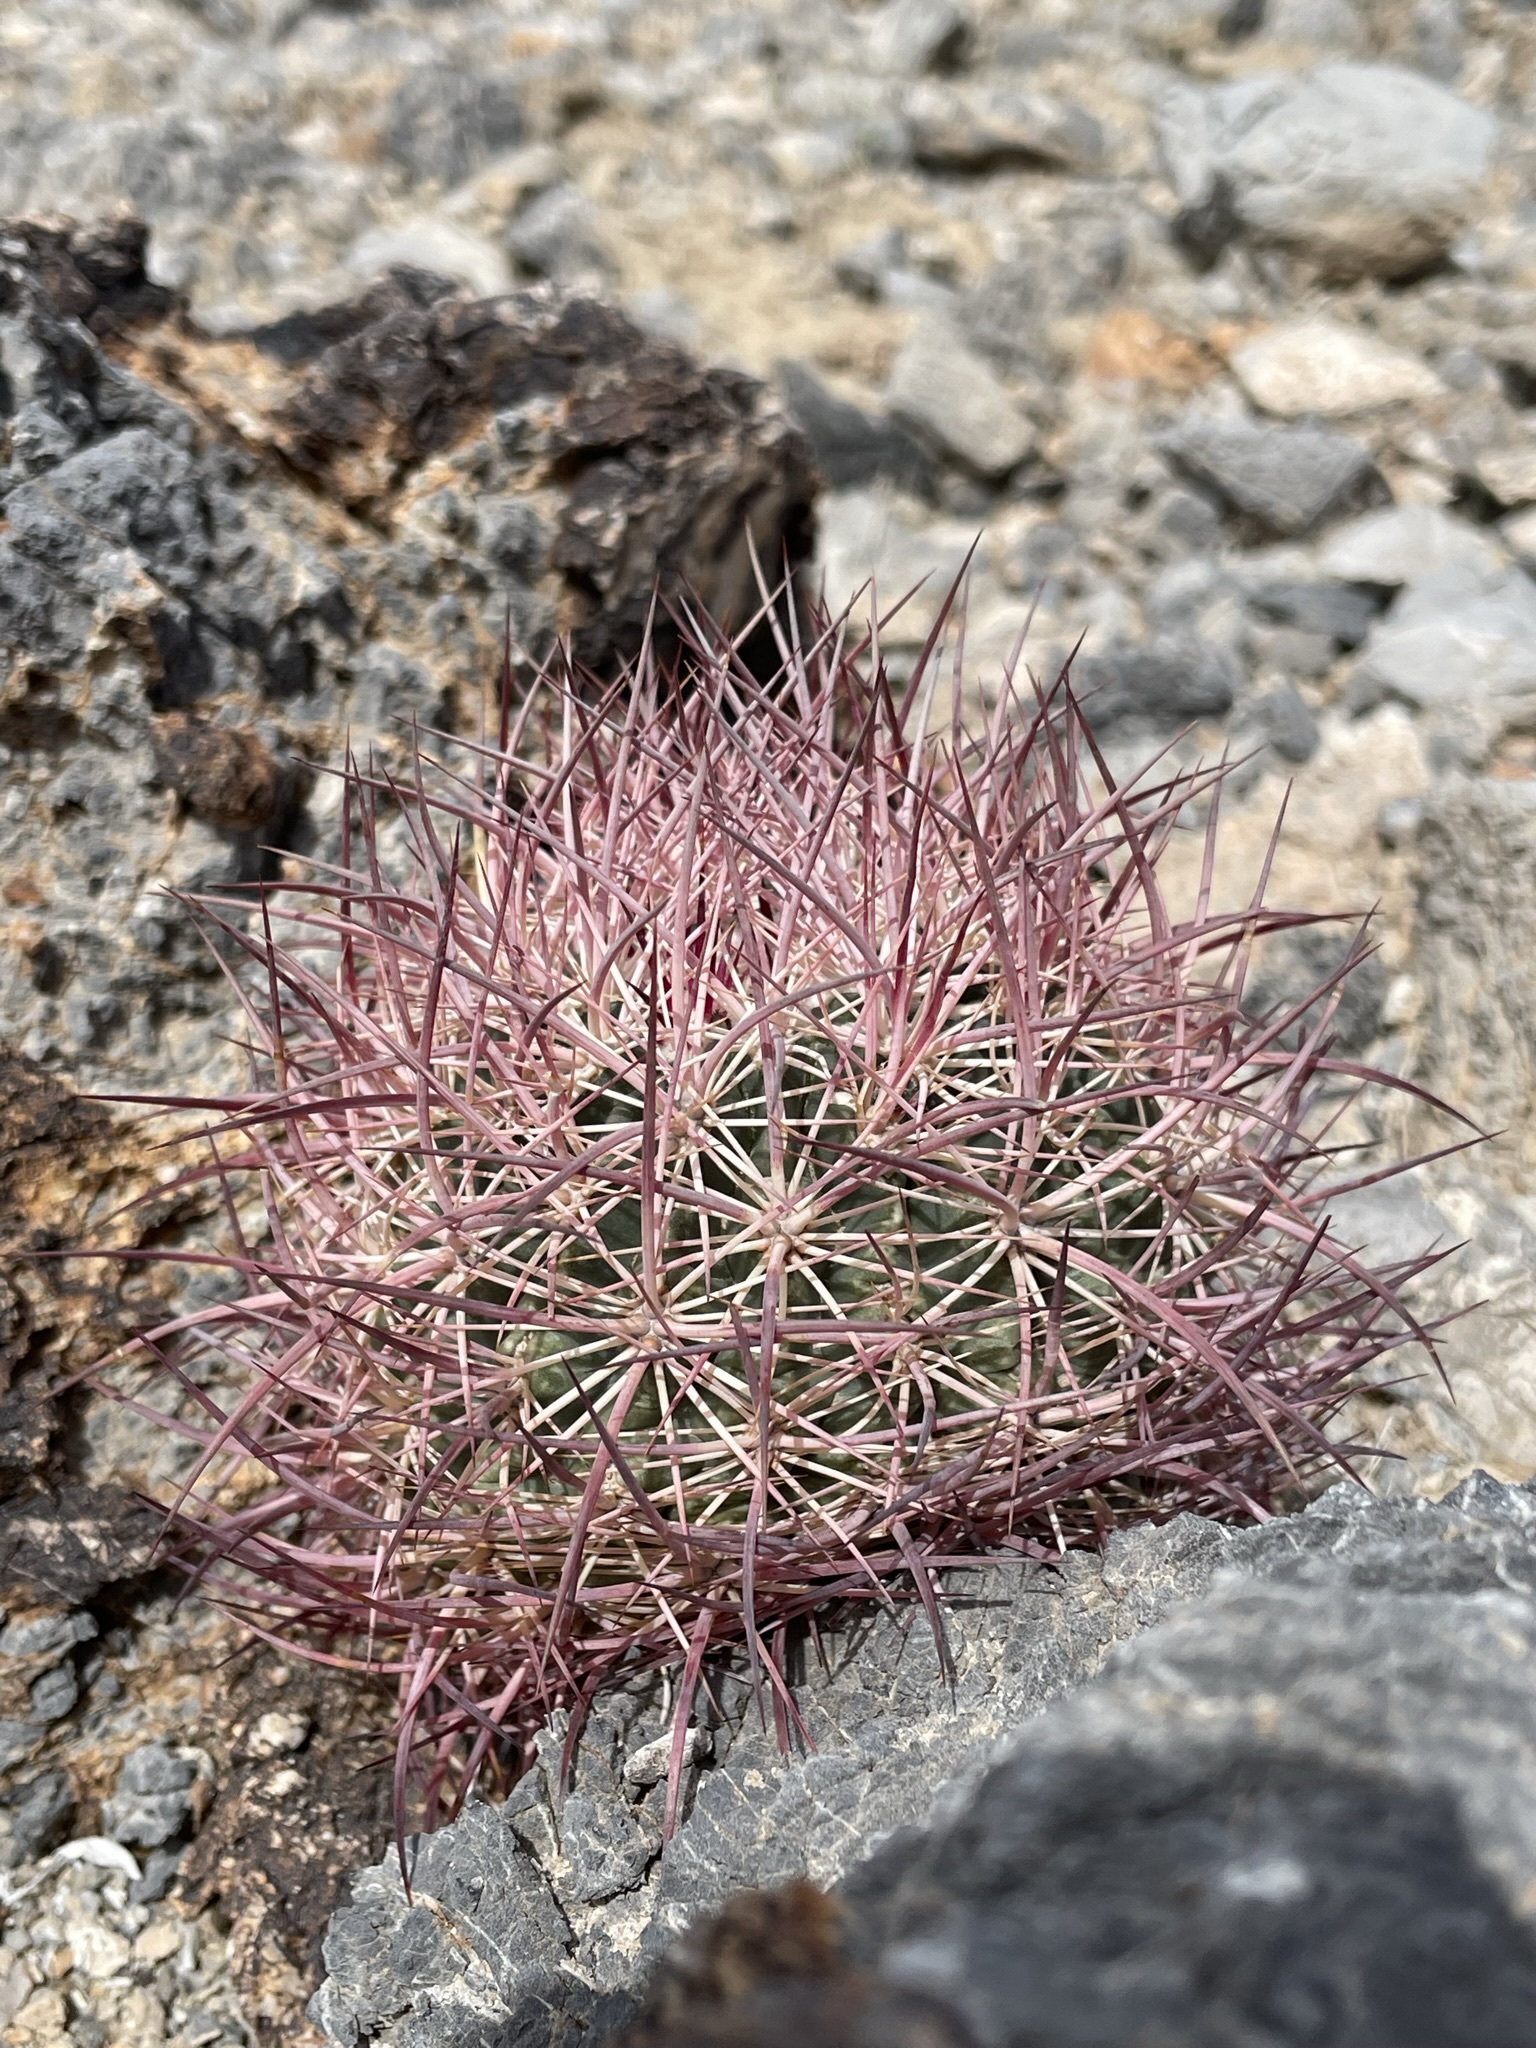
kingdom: Plantae
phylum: Tracheophyta
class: Magnoliopsida
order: Caryophyllales
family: Cactaceae
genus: Sclerocactus
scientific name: Sclerocactus johnsonii
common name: Eight-spine fishhook cactus
